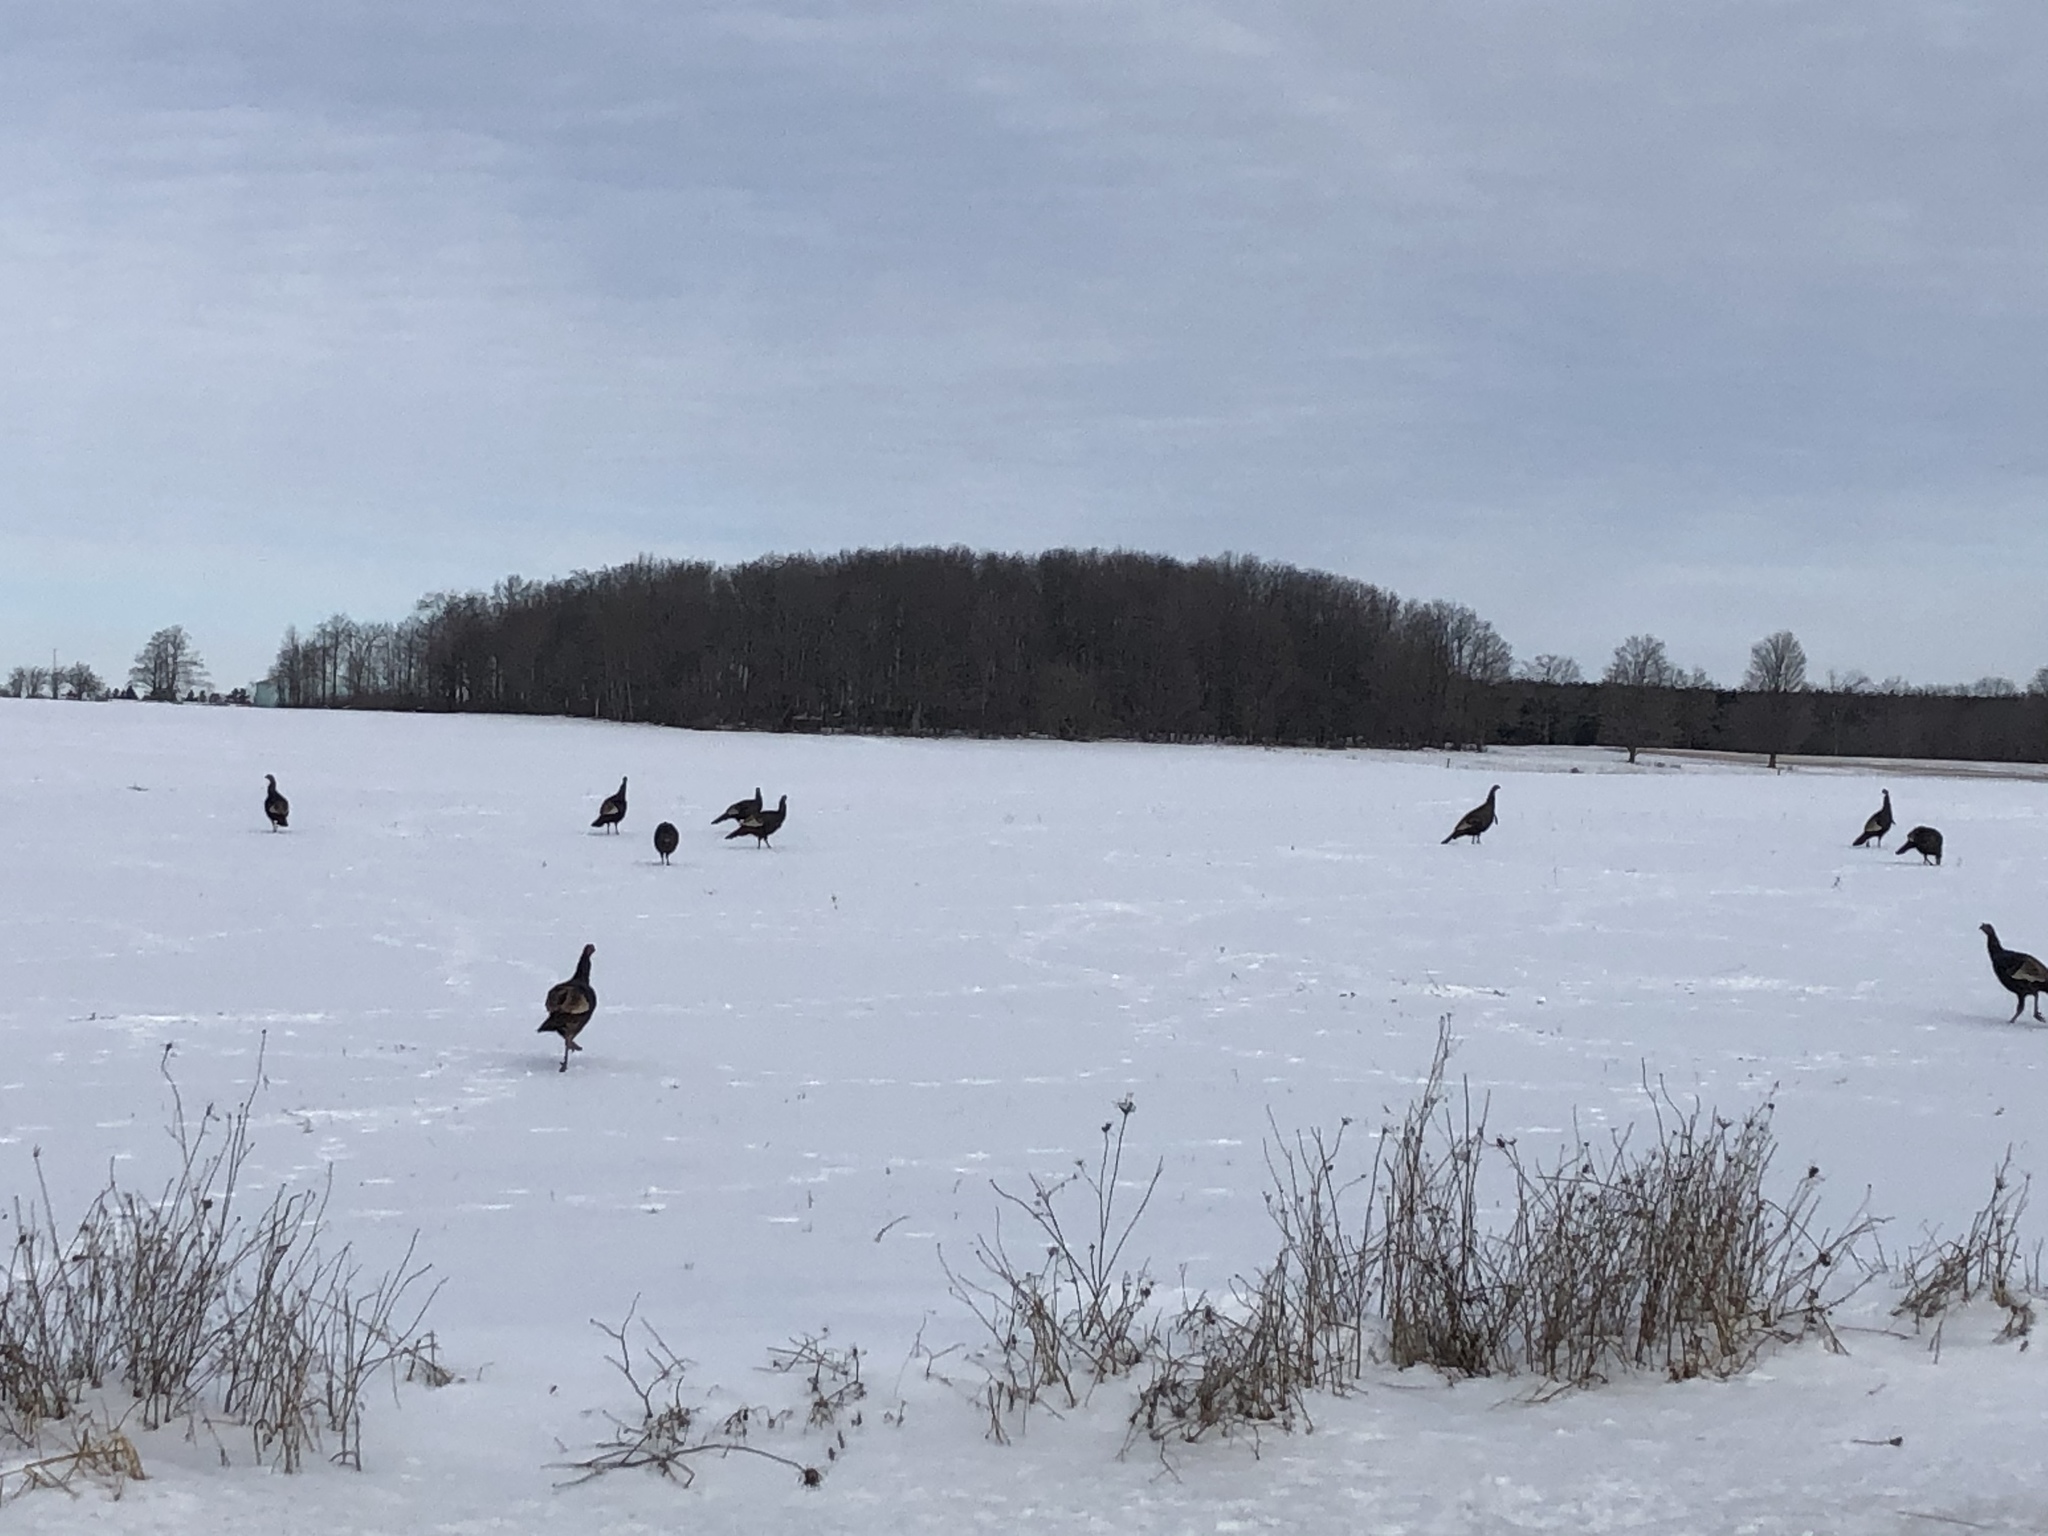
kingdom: Animalia
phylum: Chordata
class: Aves
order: Galliformes
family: Phasianidae
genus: Meleagris
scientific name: Meleagris gallopavo
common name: Wild turkey
